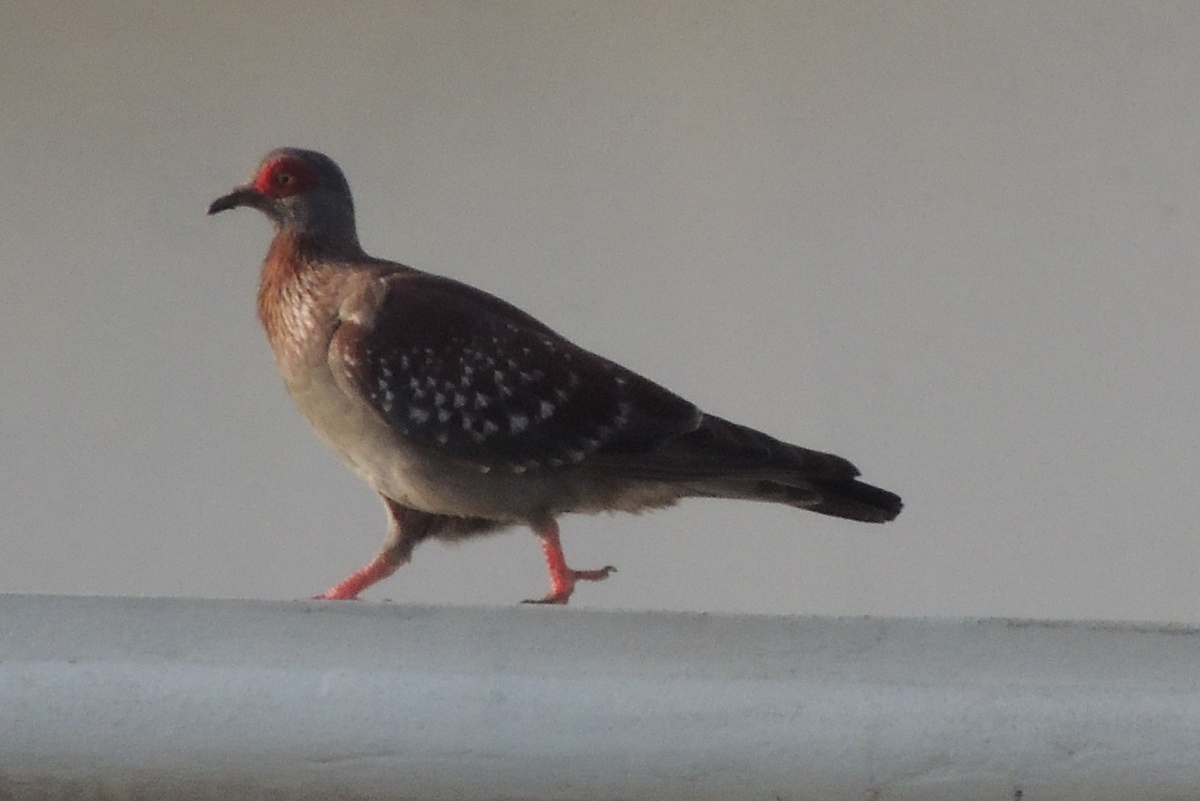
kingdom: Animalia
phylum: Chordata
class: Aves
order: Columbiformes
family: Columbidae
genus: Columba
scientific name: Columba guinea
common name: Speckled pigeon
